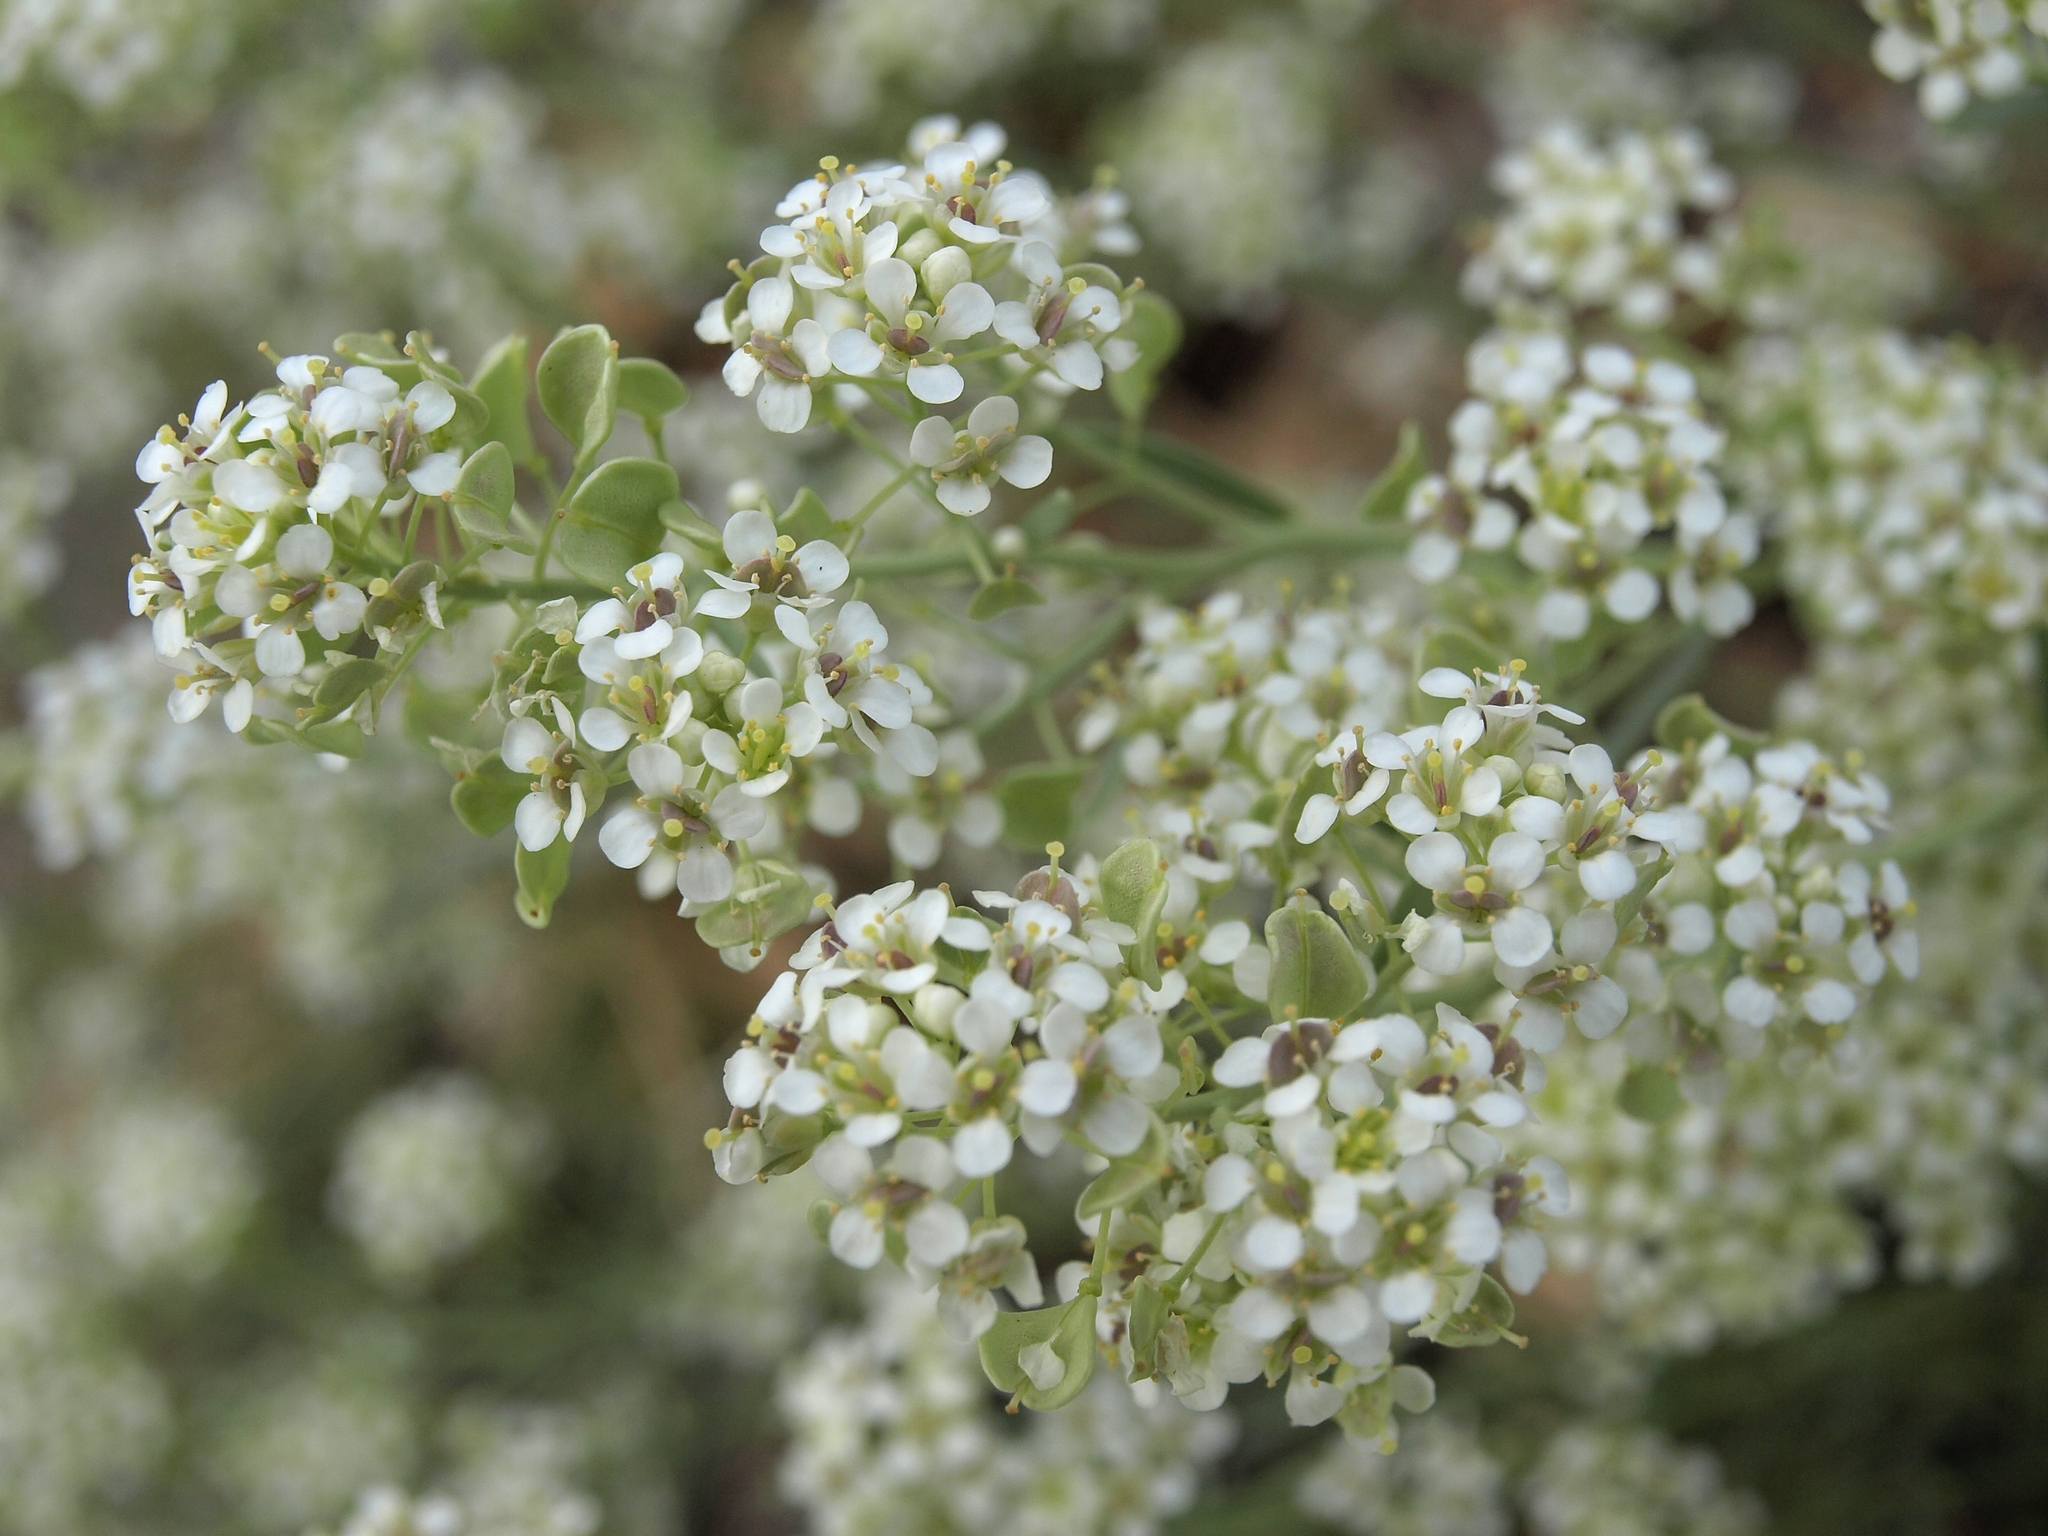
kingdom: Plantae
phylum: Tracheophyta
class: Magnoliopsida
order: Brassicales
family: Brassicaceae
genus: Lepidium
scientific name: Lepidium fremontii
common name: Fremont's pepperwort
